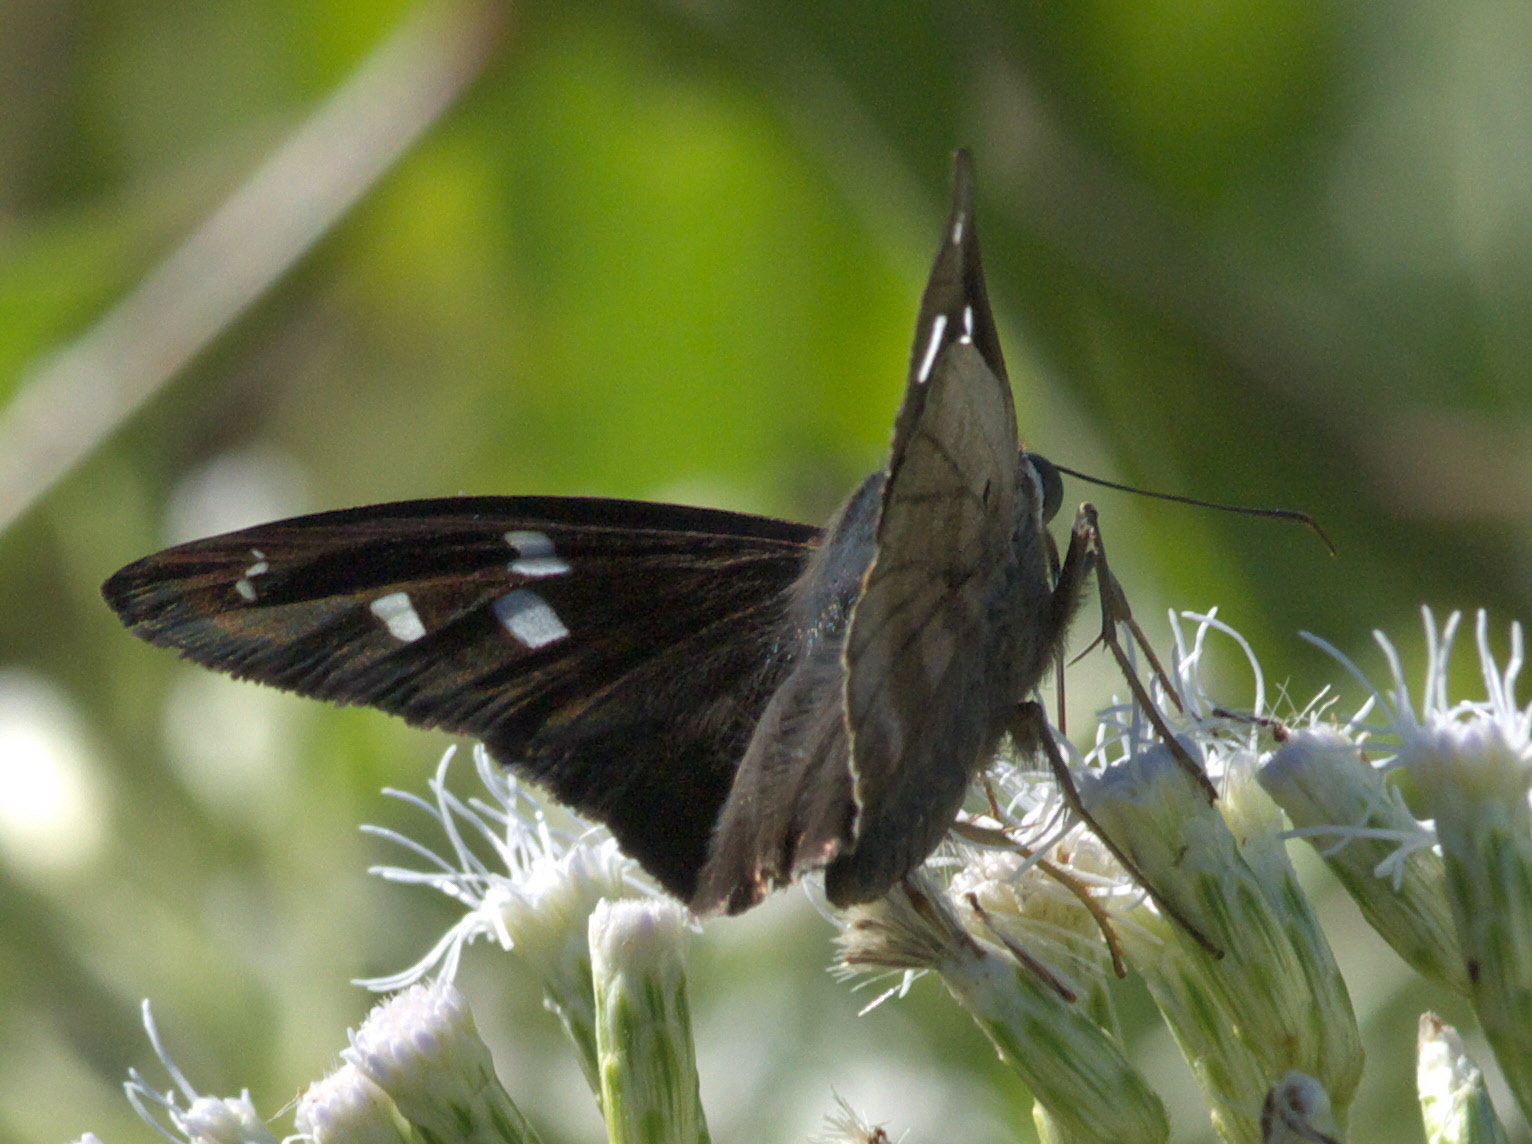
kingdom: Animalia
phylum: Arthropoda
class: Insecta
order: Lepidoptera
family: Hesperiidae
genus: Polygonus
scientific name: Polygonus leo
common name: Hammoch skipper
